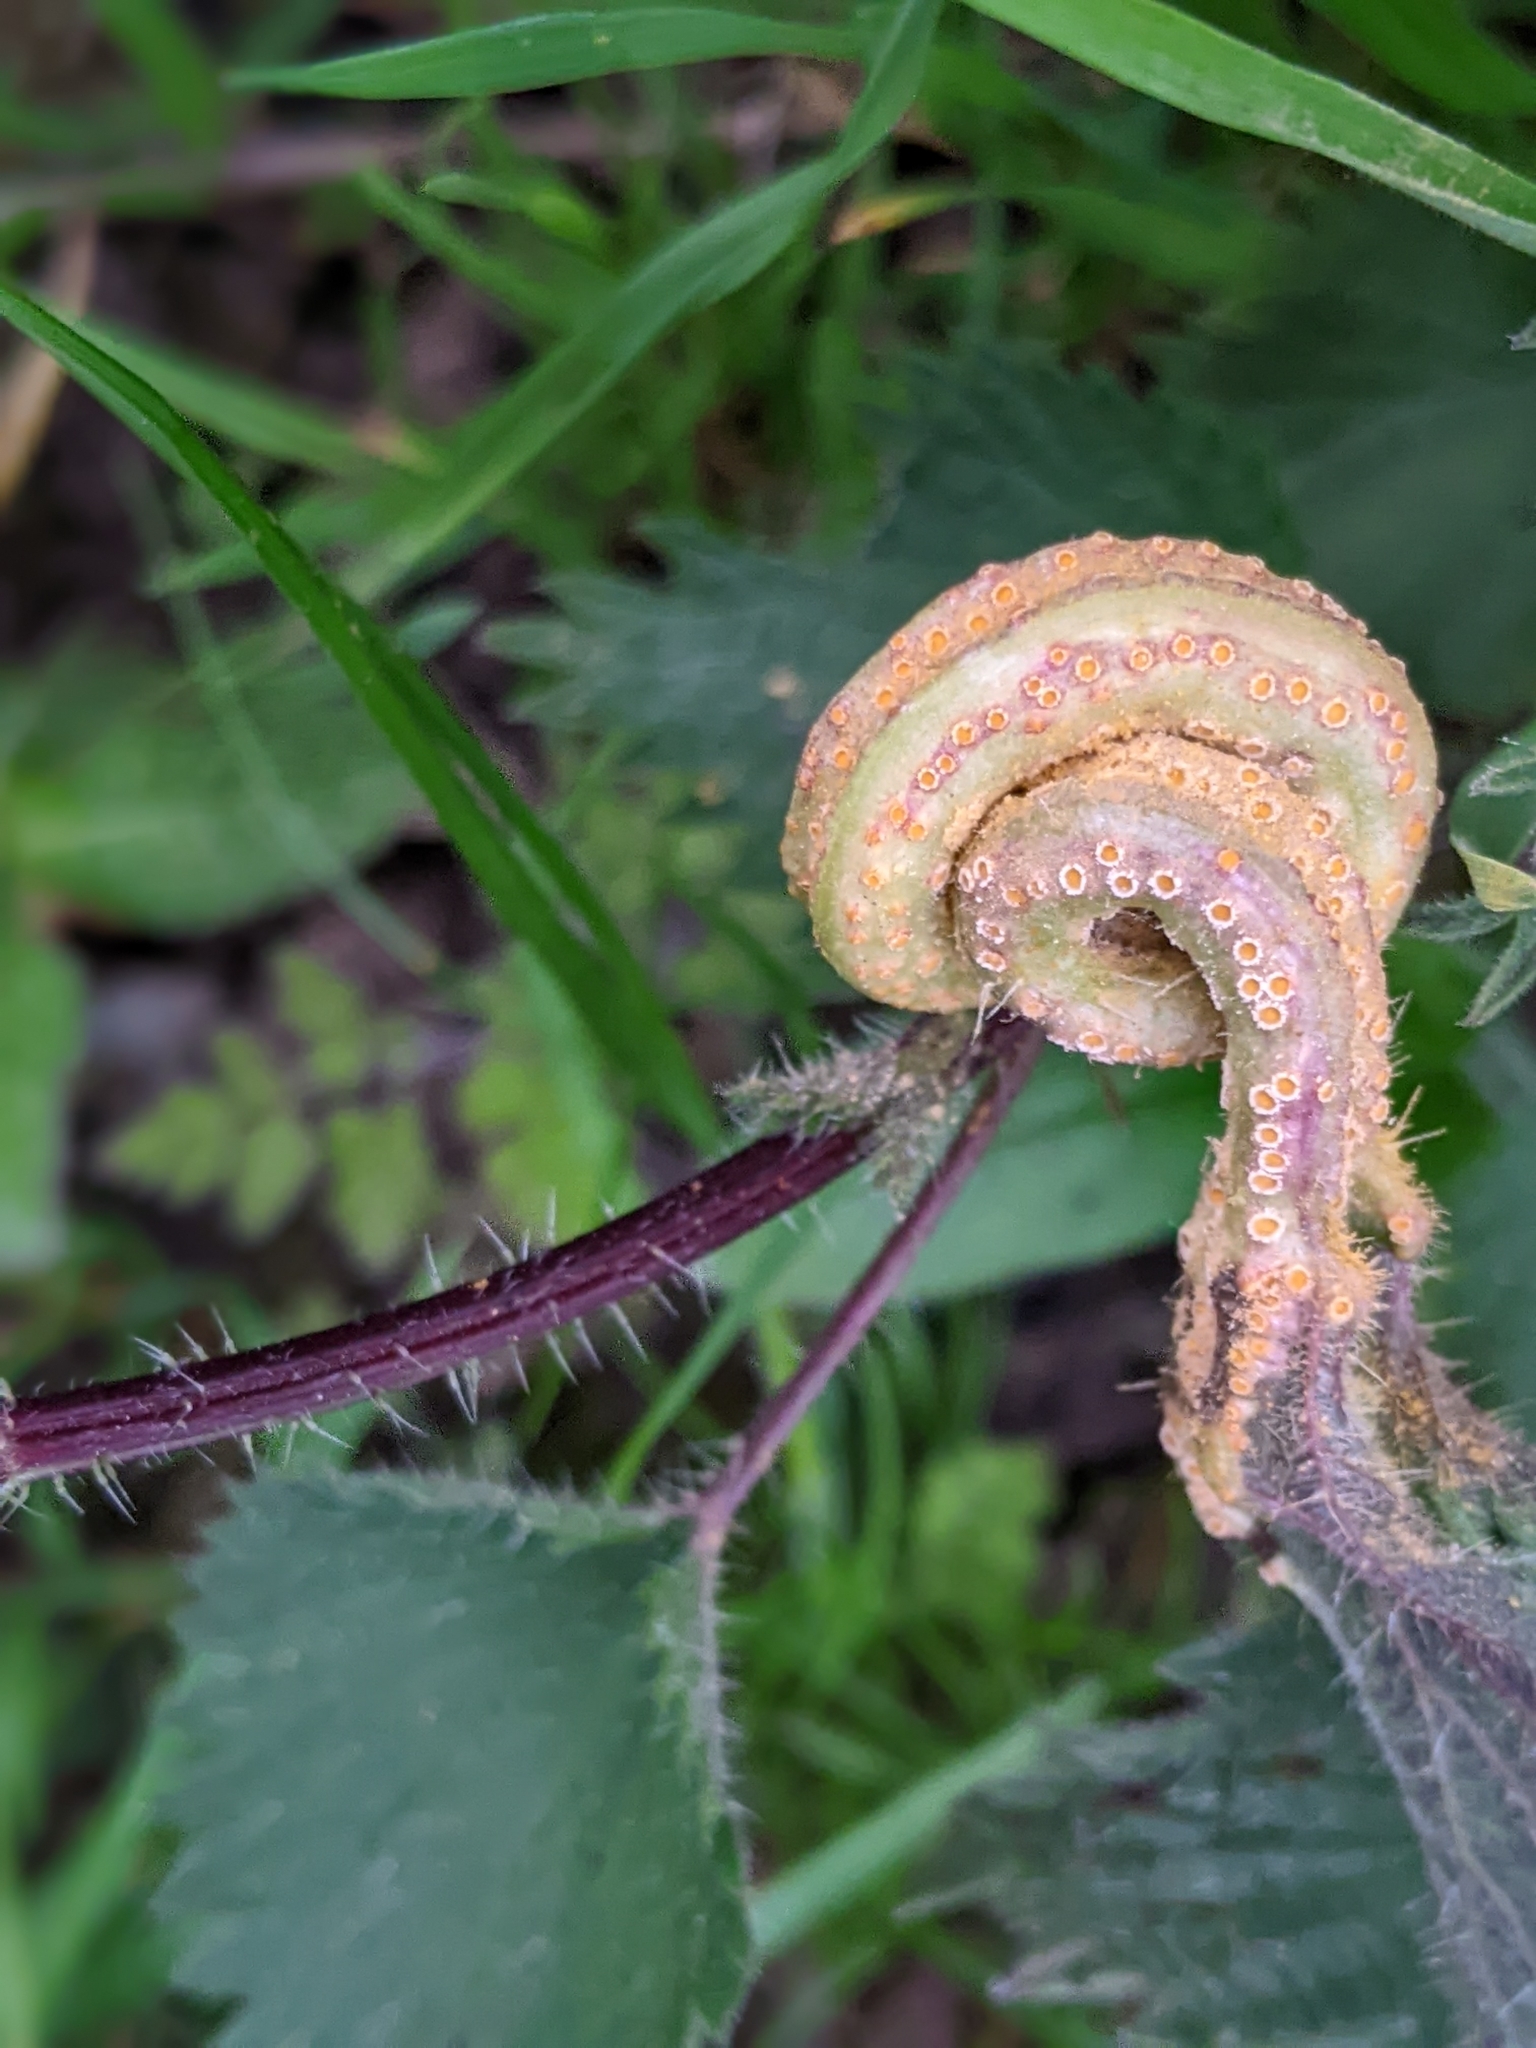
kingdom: Fungi
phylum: Basidiomycota
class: Pucciniomycetes
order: Pucciniales
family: Pucciniaceae
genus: Puccinia
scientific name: Puccinia urticata
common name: Nettle clustercup rust fungus
